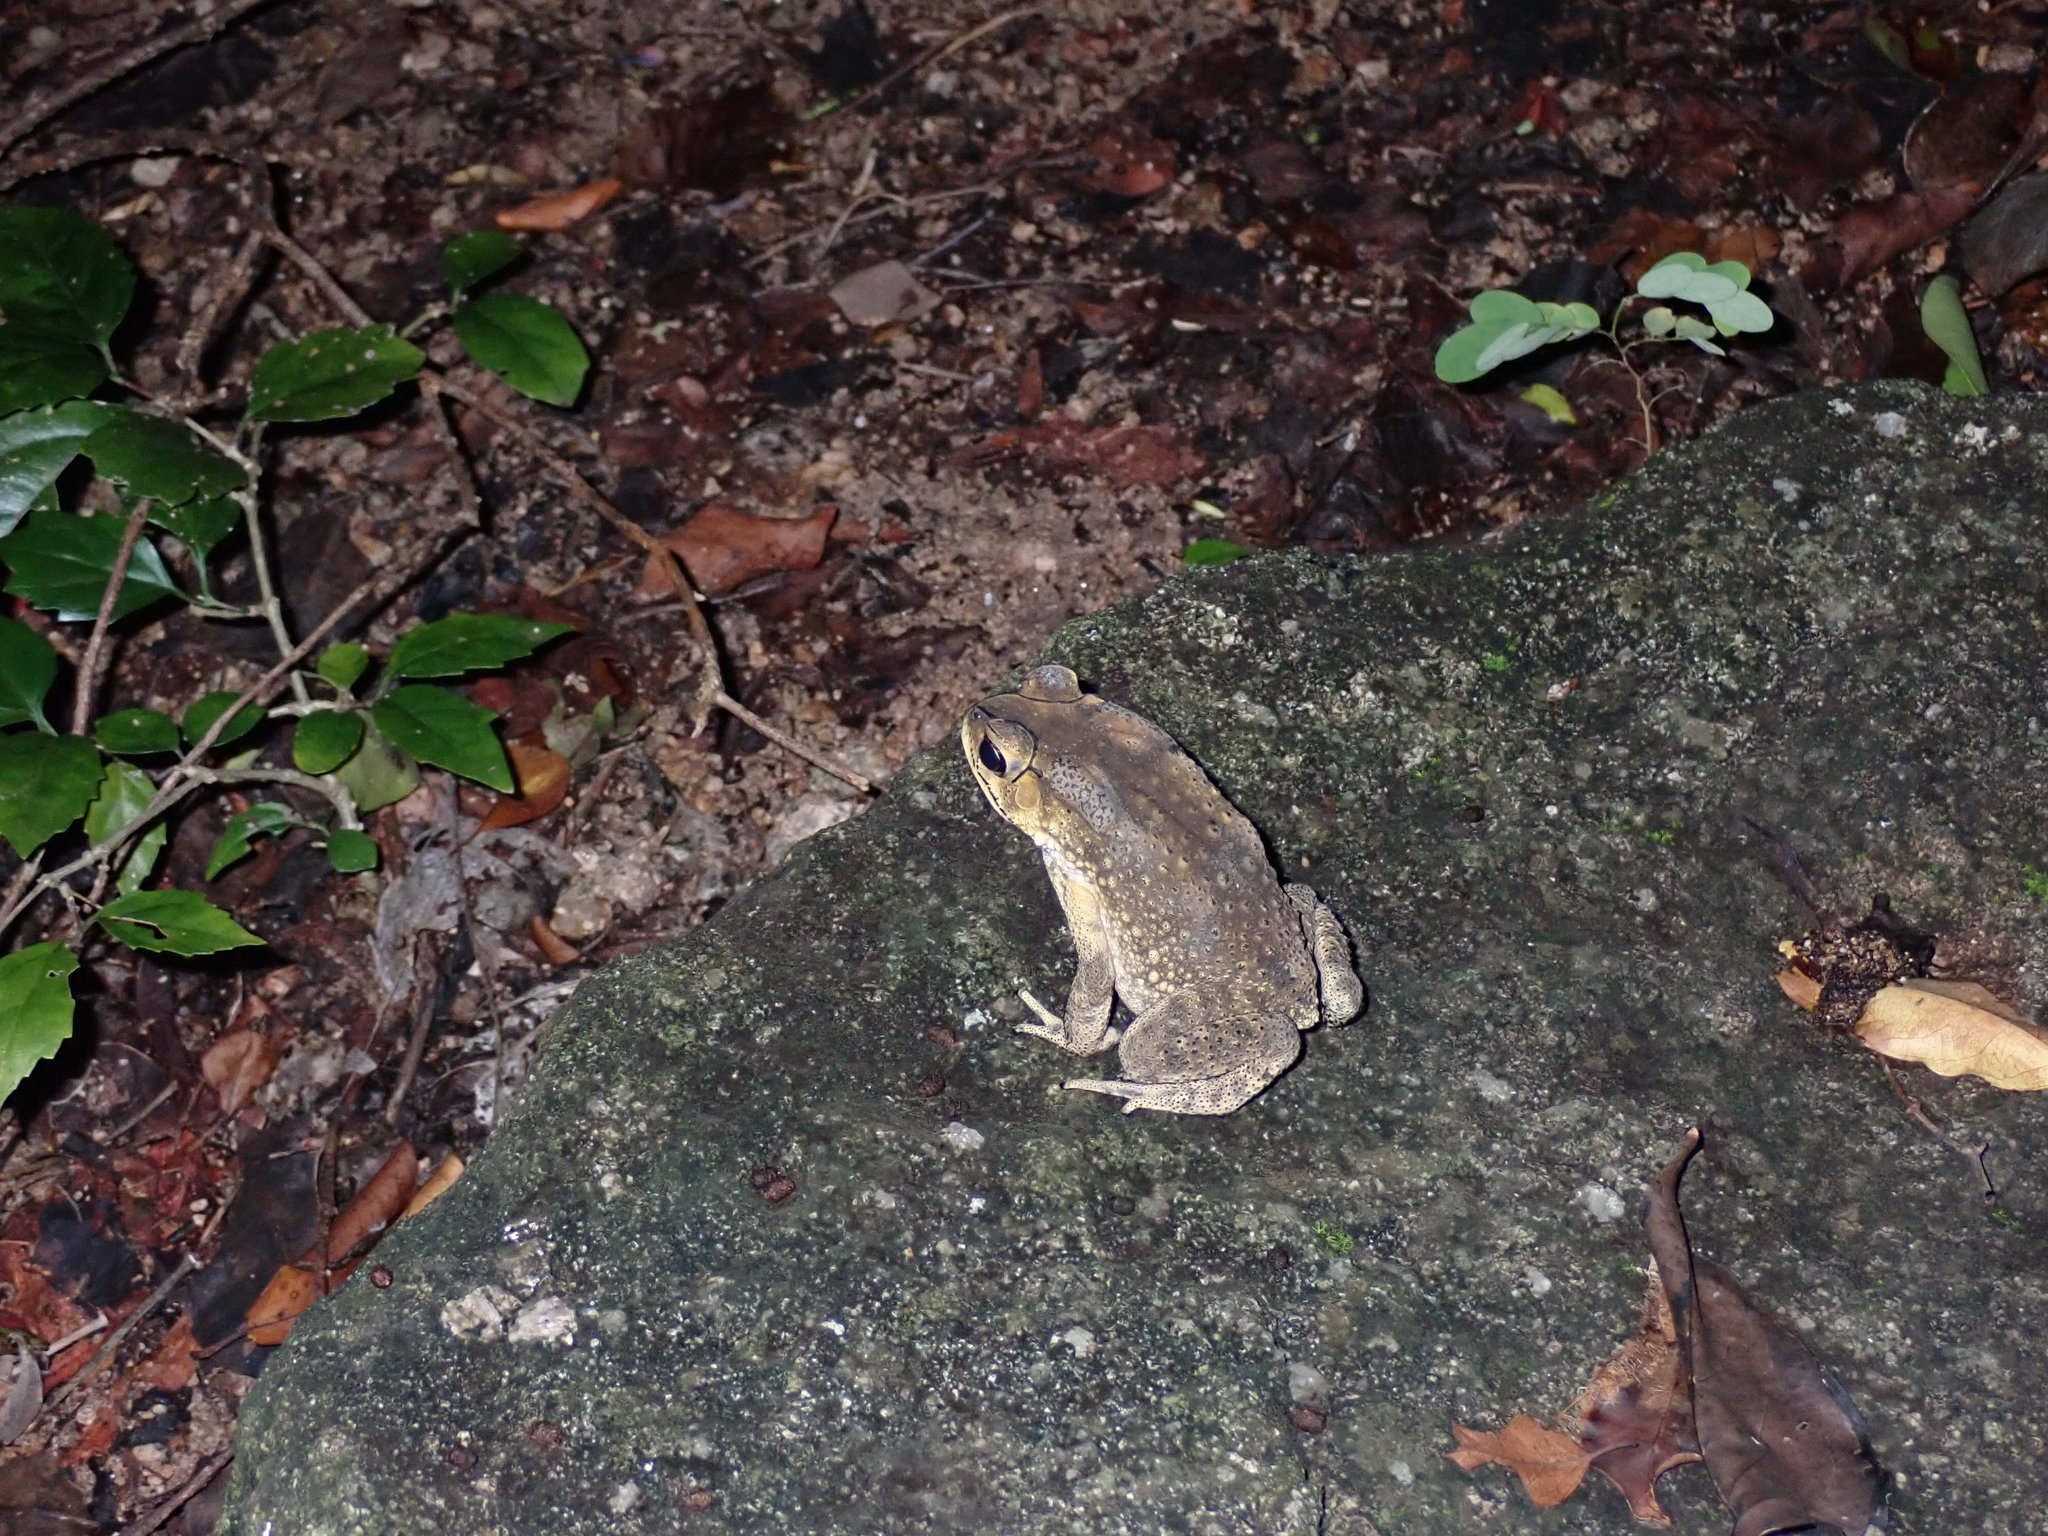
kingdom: Animalia
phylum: Chordata
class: Amphibia
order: Anura
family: Bufonidae
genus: Duttaphrynus
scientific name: Duttaphrynus melanostictus
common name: Common sunda toad
